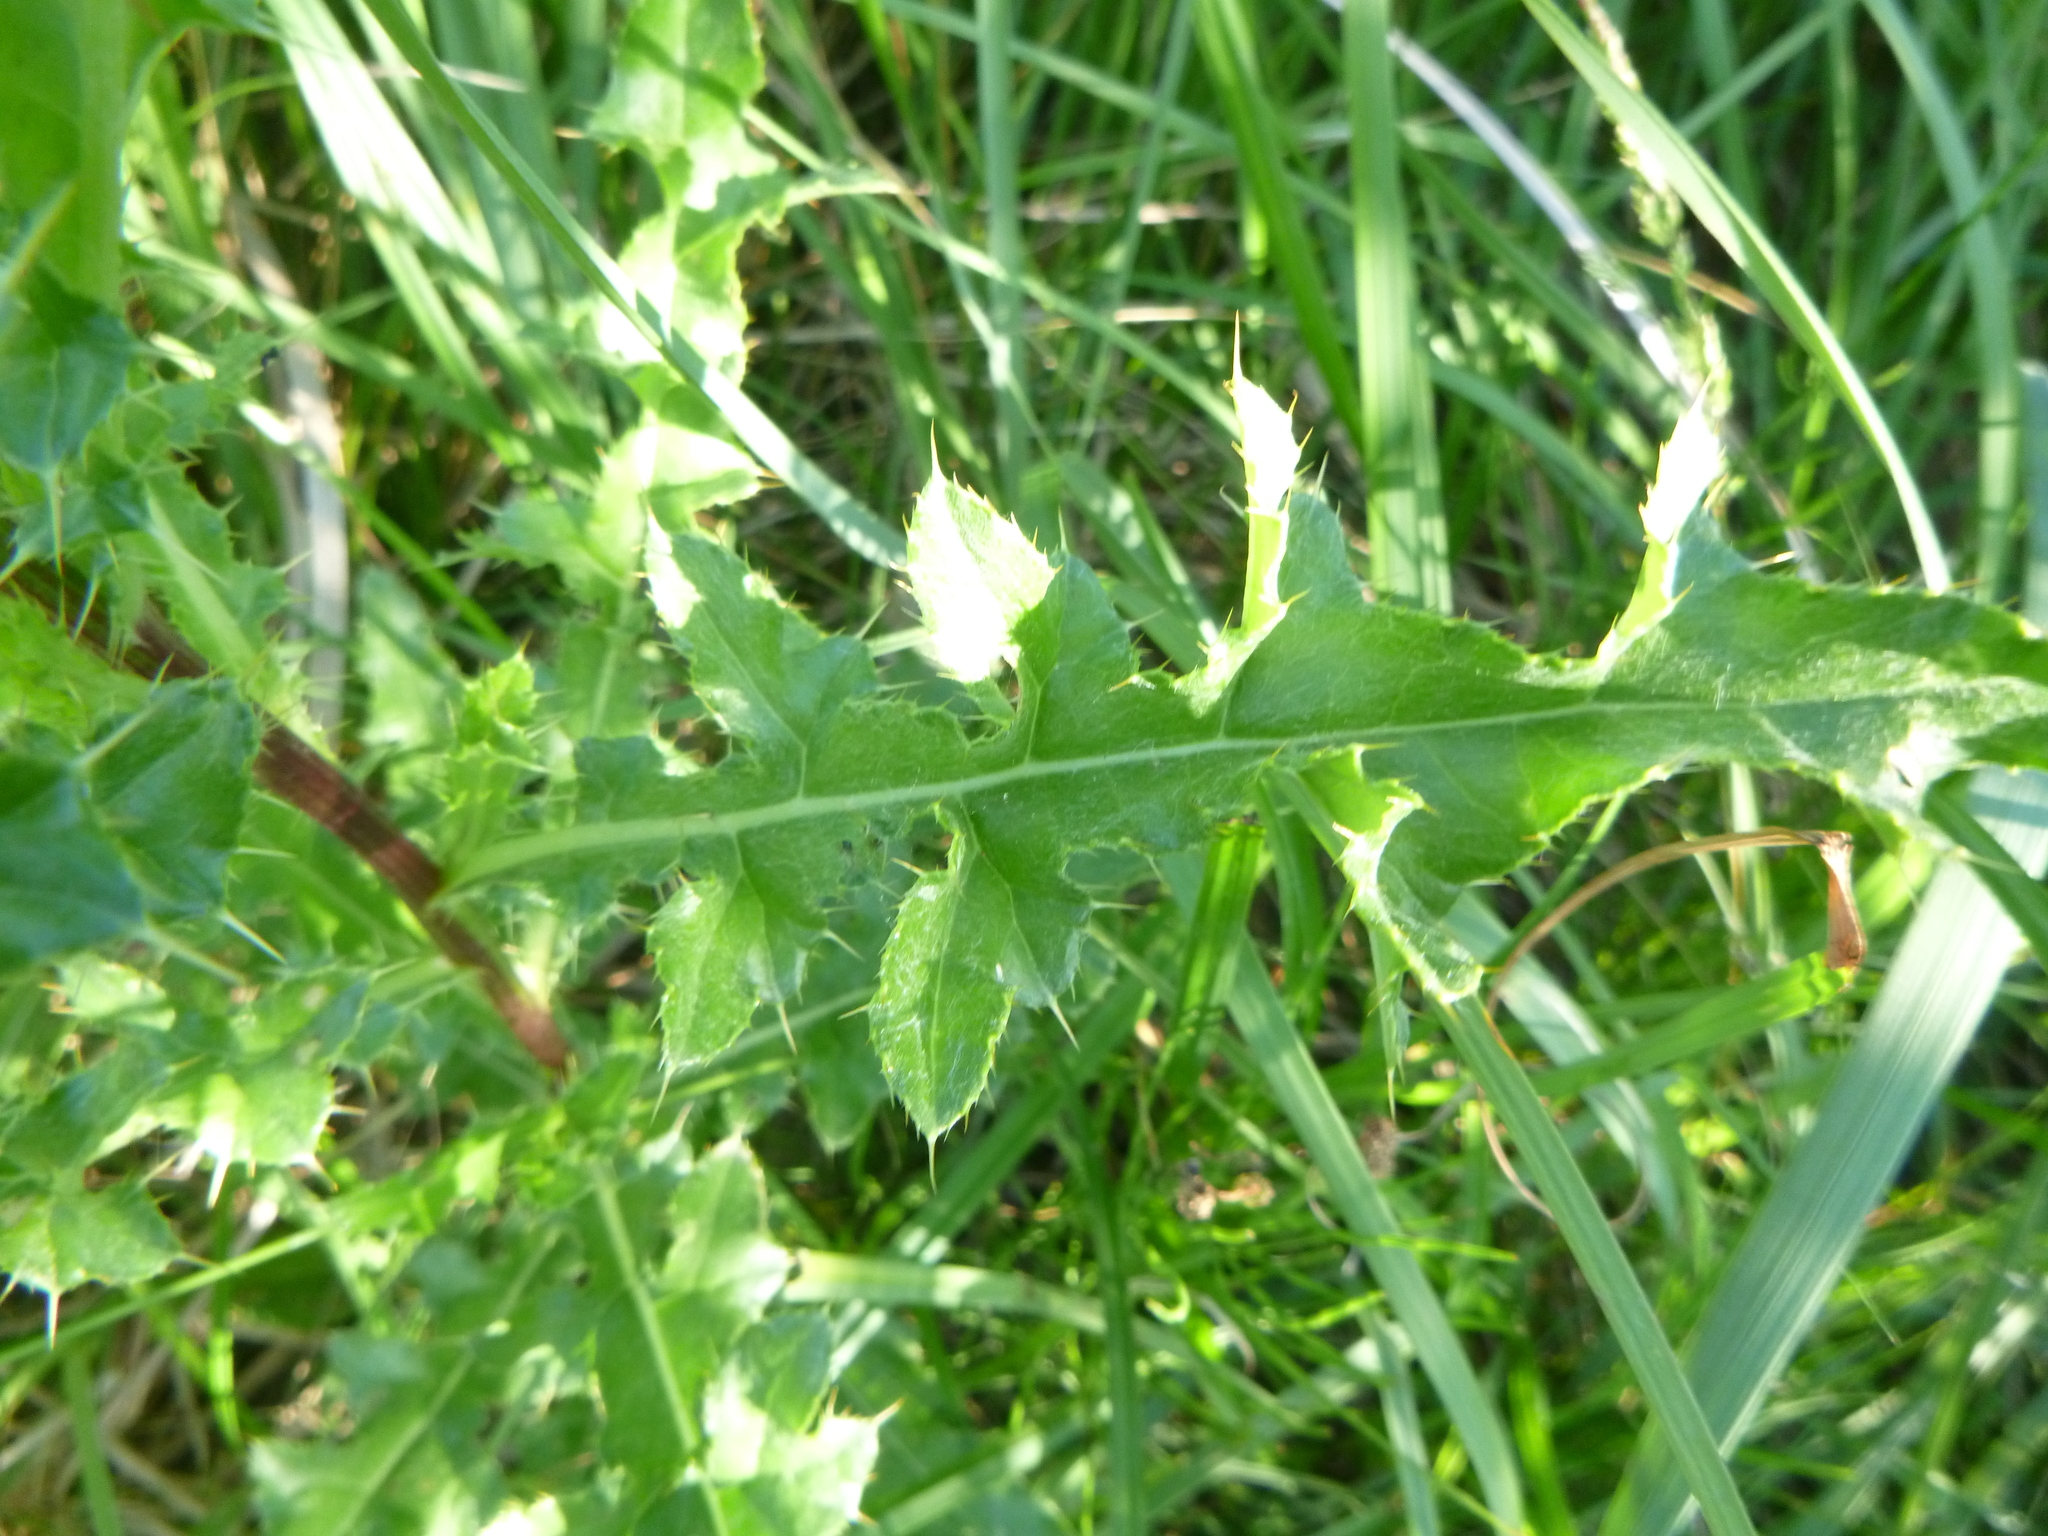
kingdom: Plantae
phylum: Tracheophyta
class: Magnoliopsida
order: Asterales
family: Asteraceae
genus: Cirsium
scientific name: Cirsium arvense
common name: Creeping thistle
